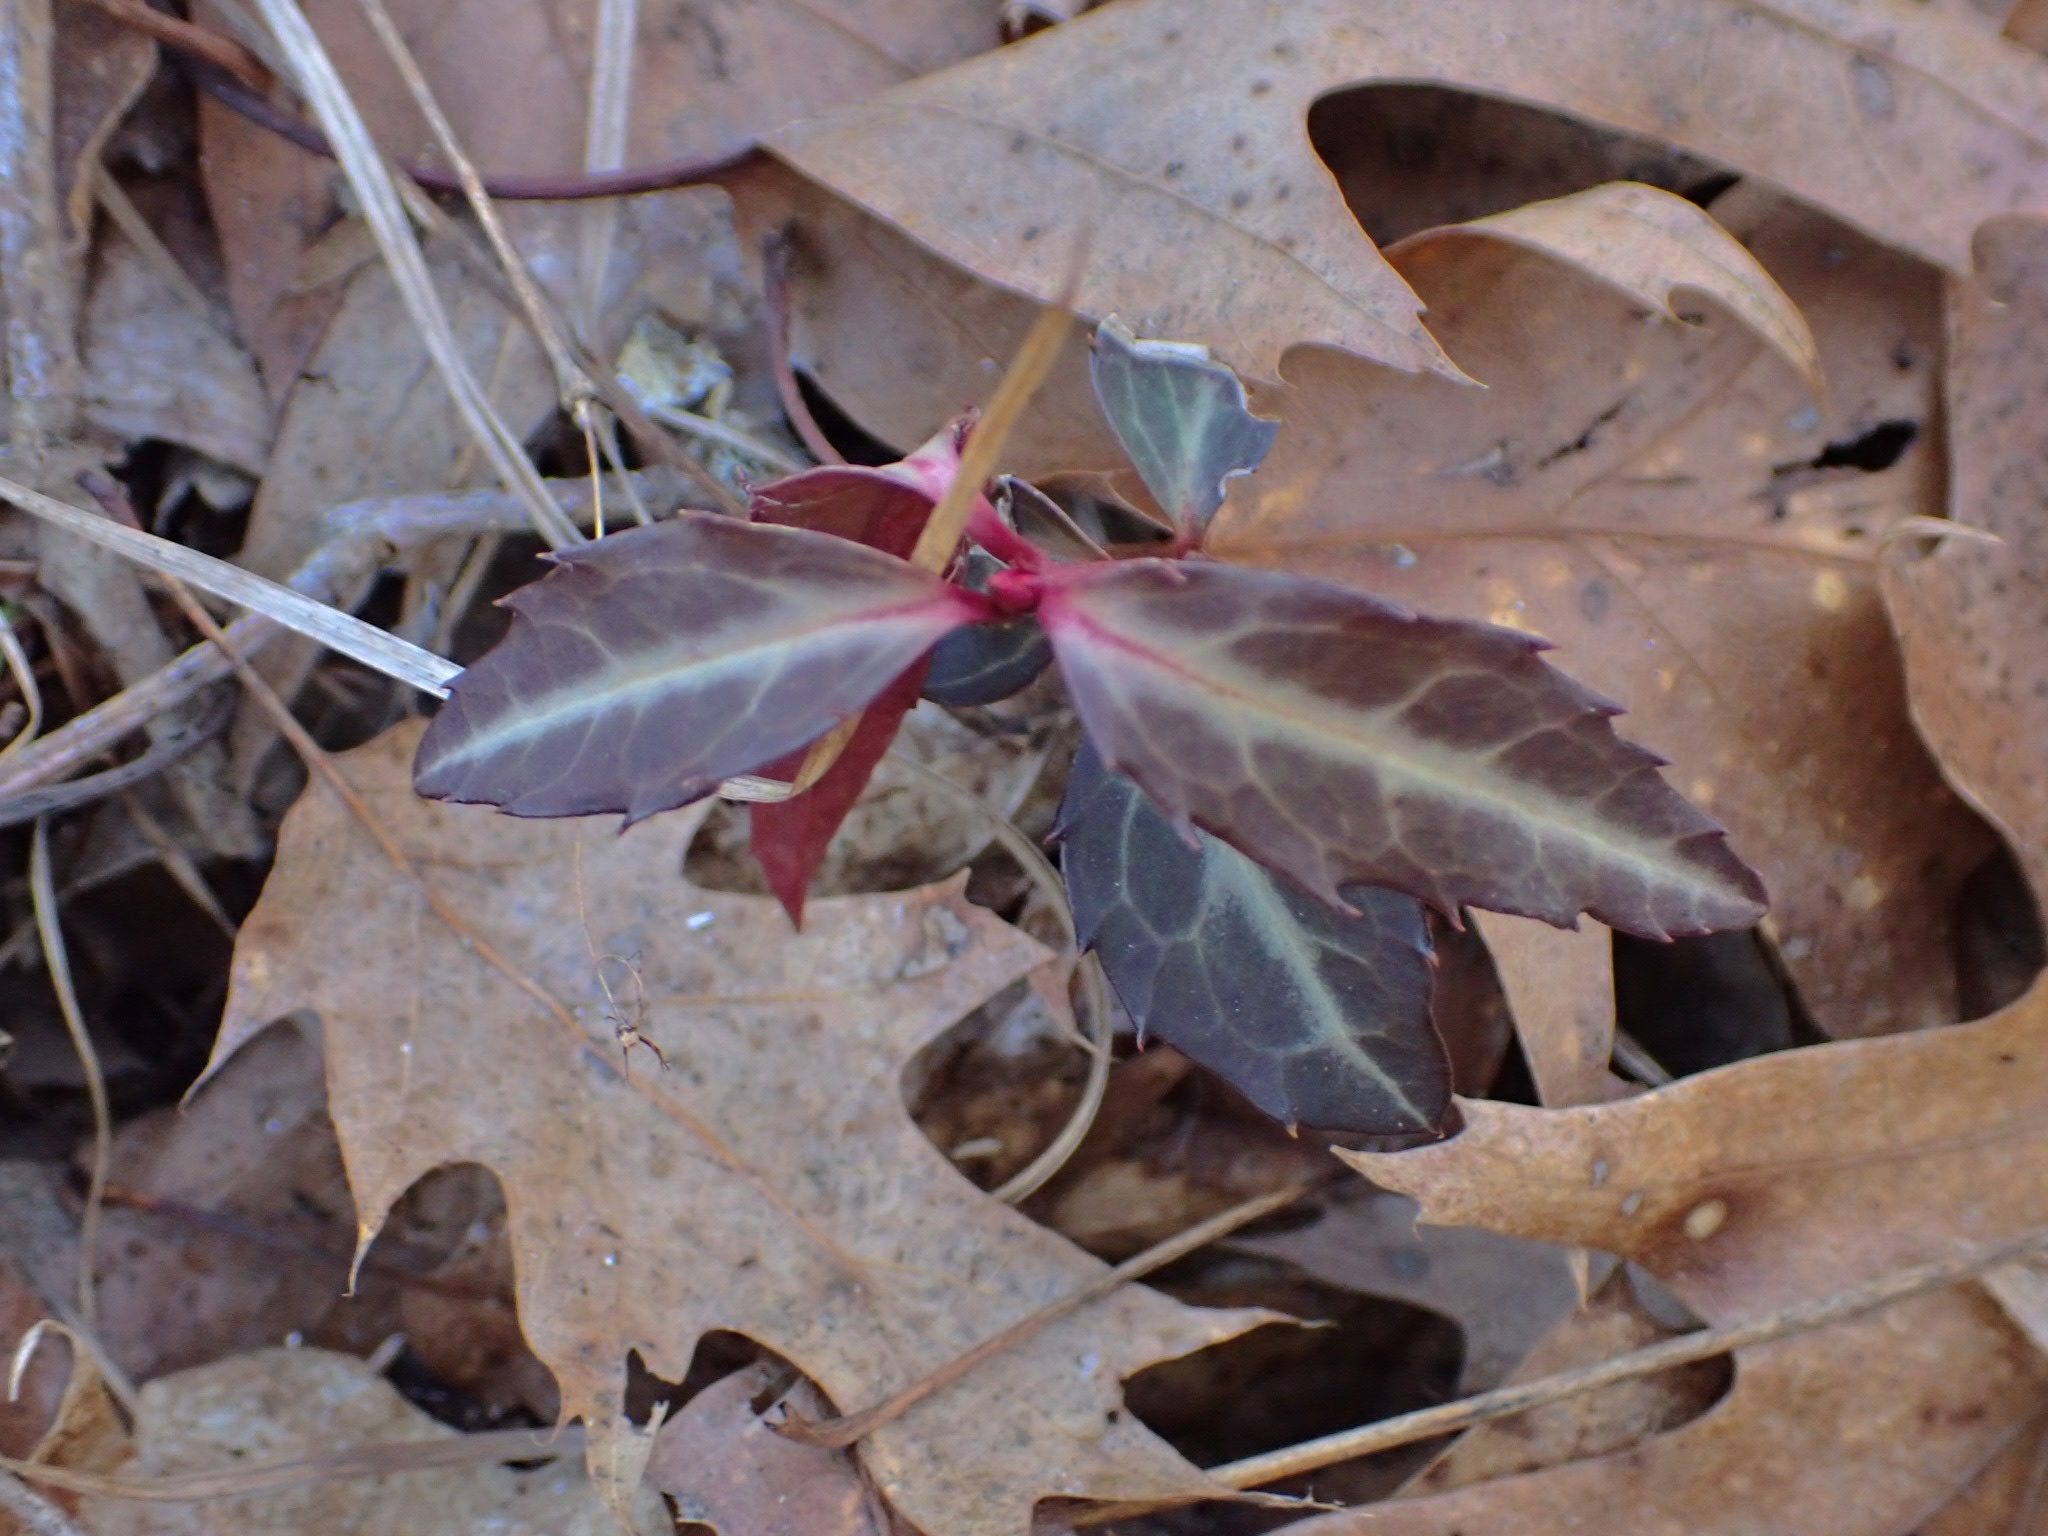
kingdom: Plantae
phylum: Tracheophyta
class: Magnoliopsida
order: Ericales
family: Ericaceae
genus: Chimaphila
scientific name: Chimaphila maculata
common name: Spotted pipsissewa
